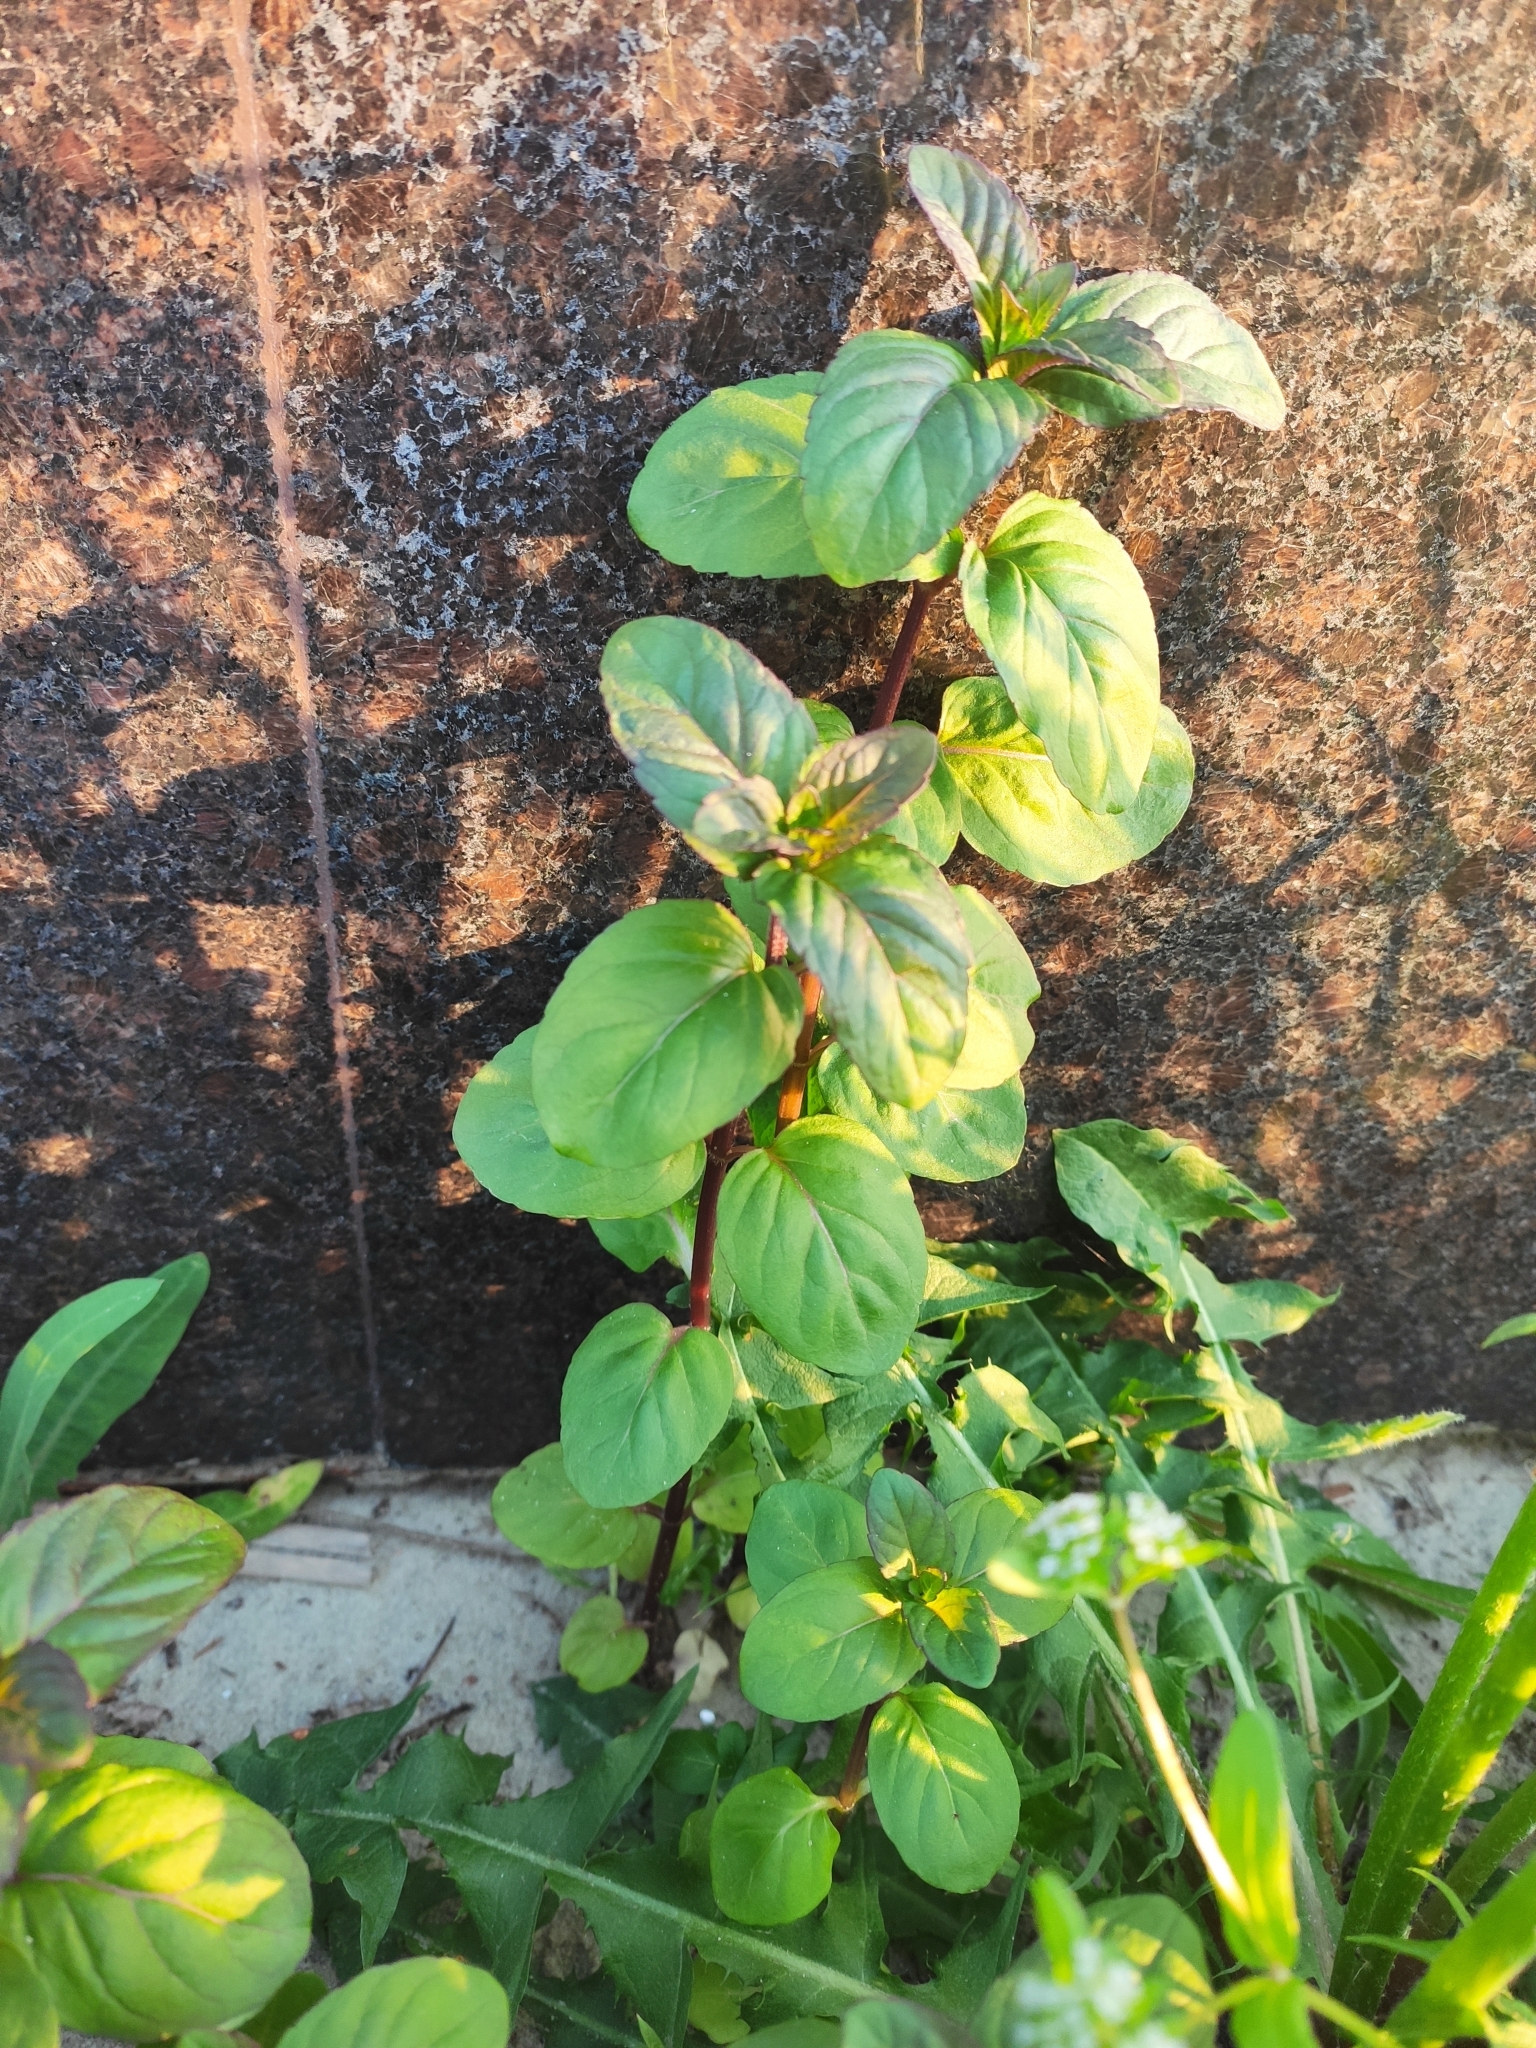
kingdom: Plantae
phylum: Tracheophyta
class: Magnoliopsida
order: Lamiales
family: Lamiaceae
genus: Mentha
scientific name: Mentha aquatica
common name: Water mint
